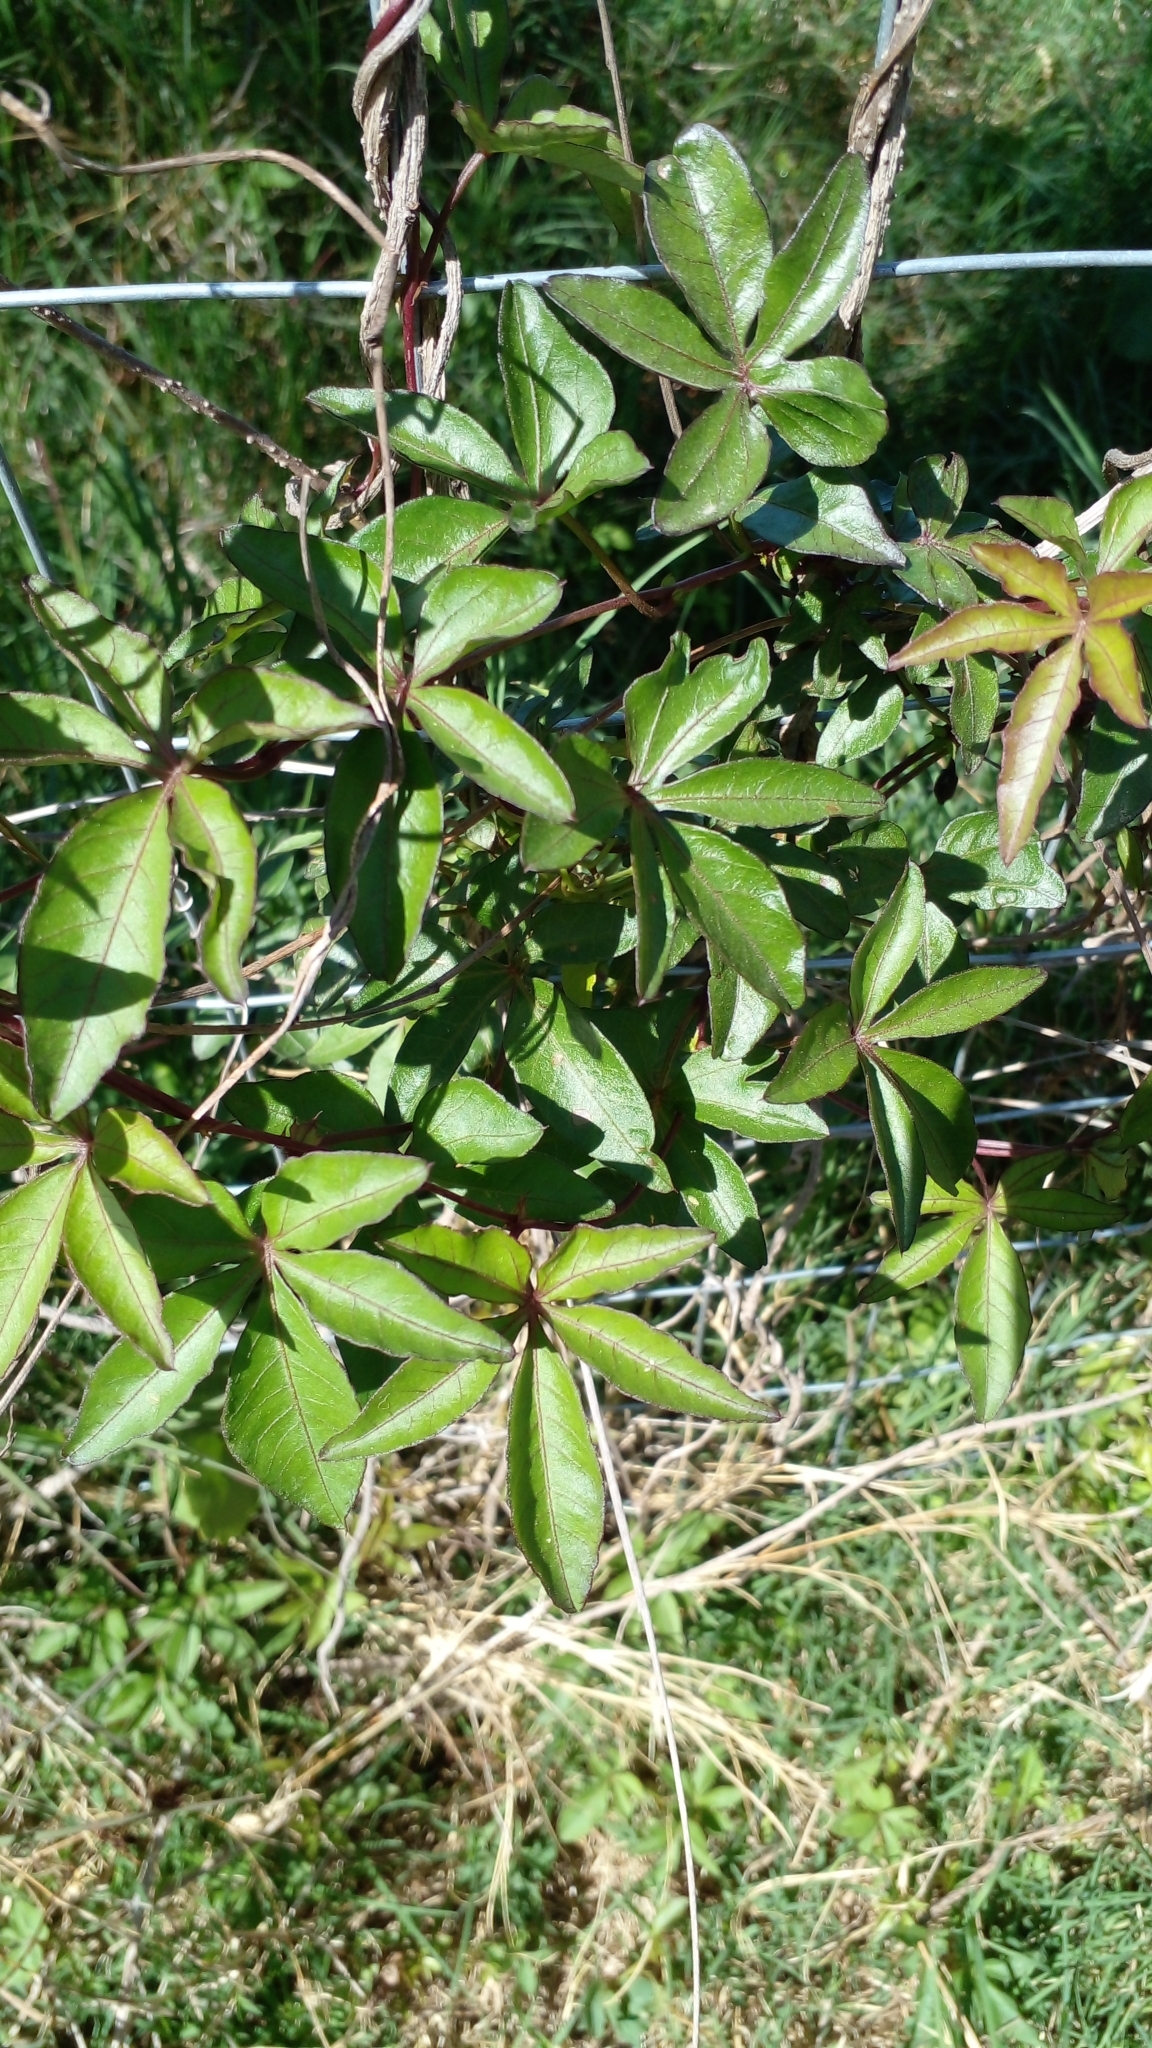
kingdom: Plantae
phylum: Tracheophyta
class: Magnoliopsida
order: Solanales
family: Convolvulaceae
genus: Ipomoea
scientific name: Ipomoea cairica
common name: Mile a minute vine
